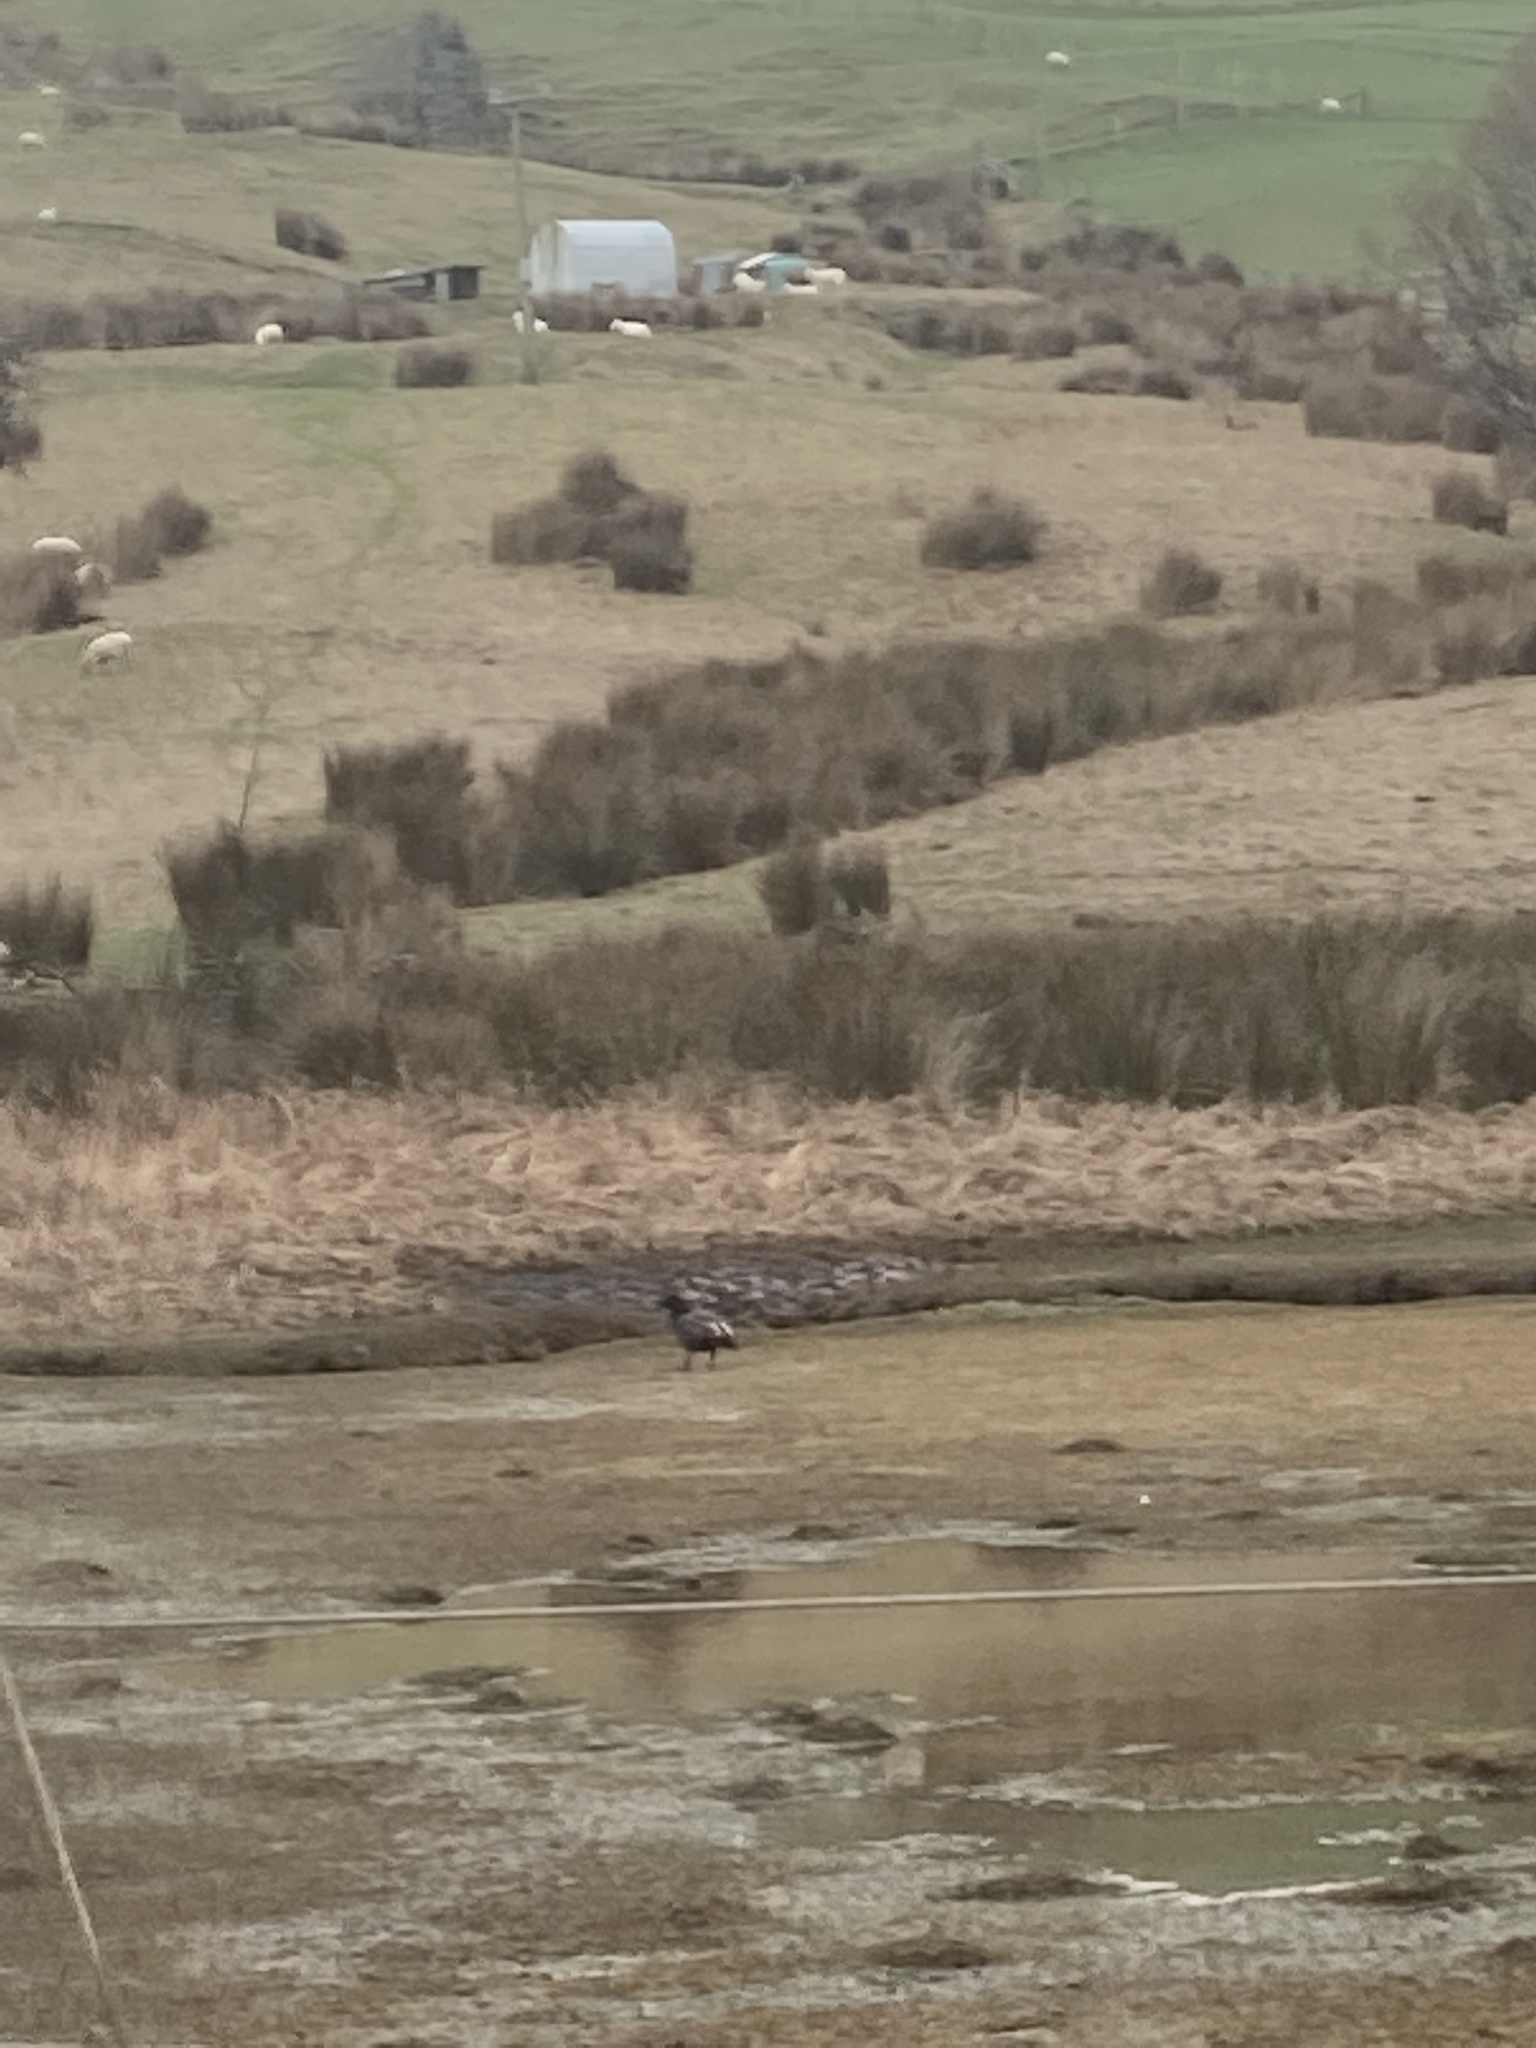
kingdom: Animalia
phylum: Chordata
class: Aves
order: Anseriformes
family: Anatidae
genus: Tadorna
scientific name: Tadorna variegata
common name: Paradise shelduck
